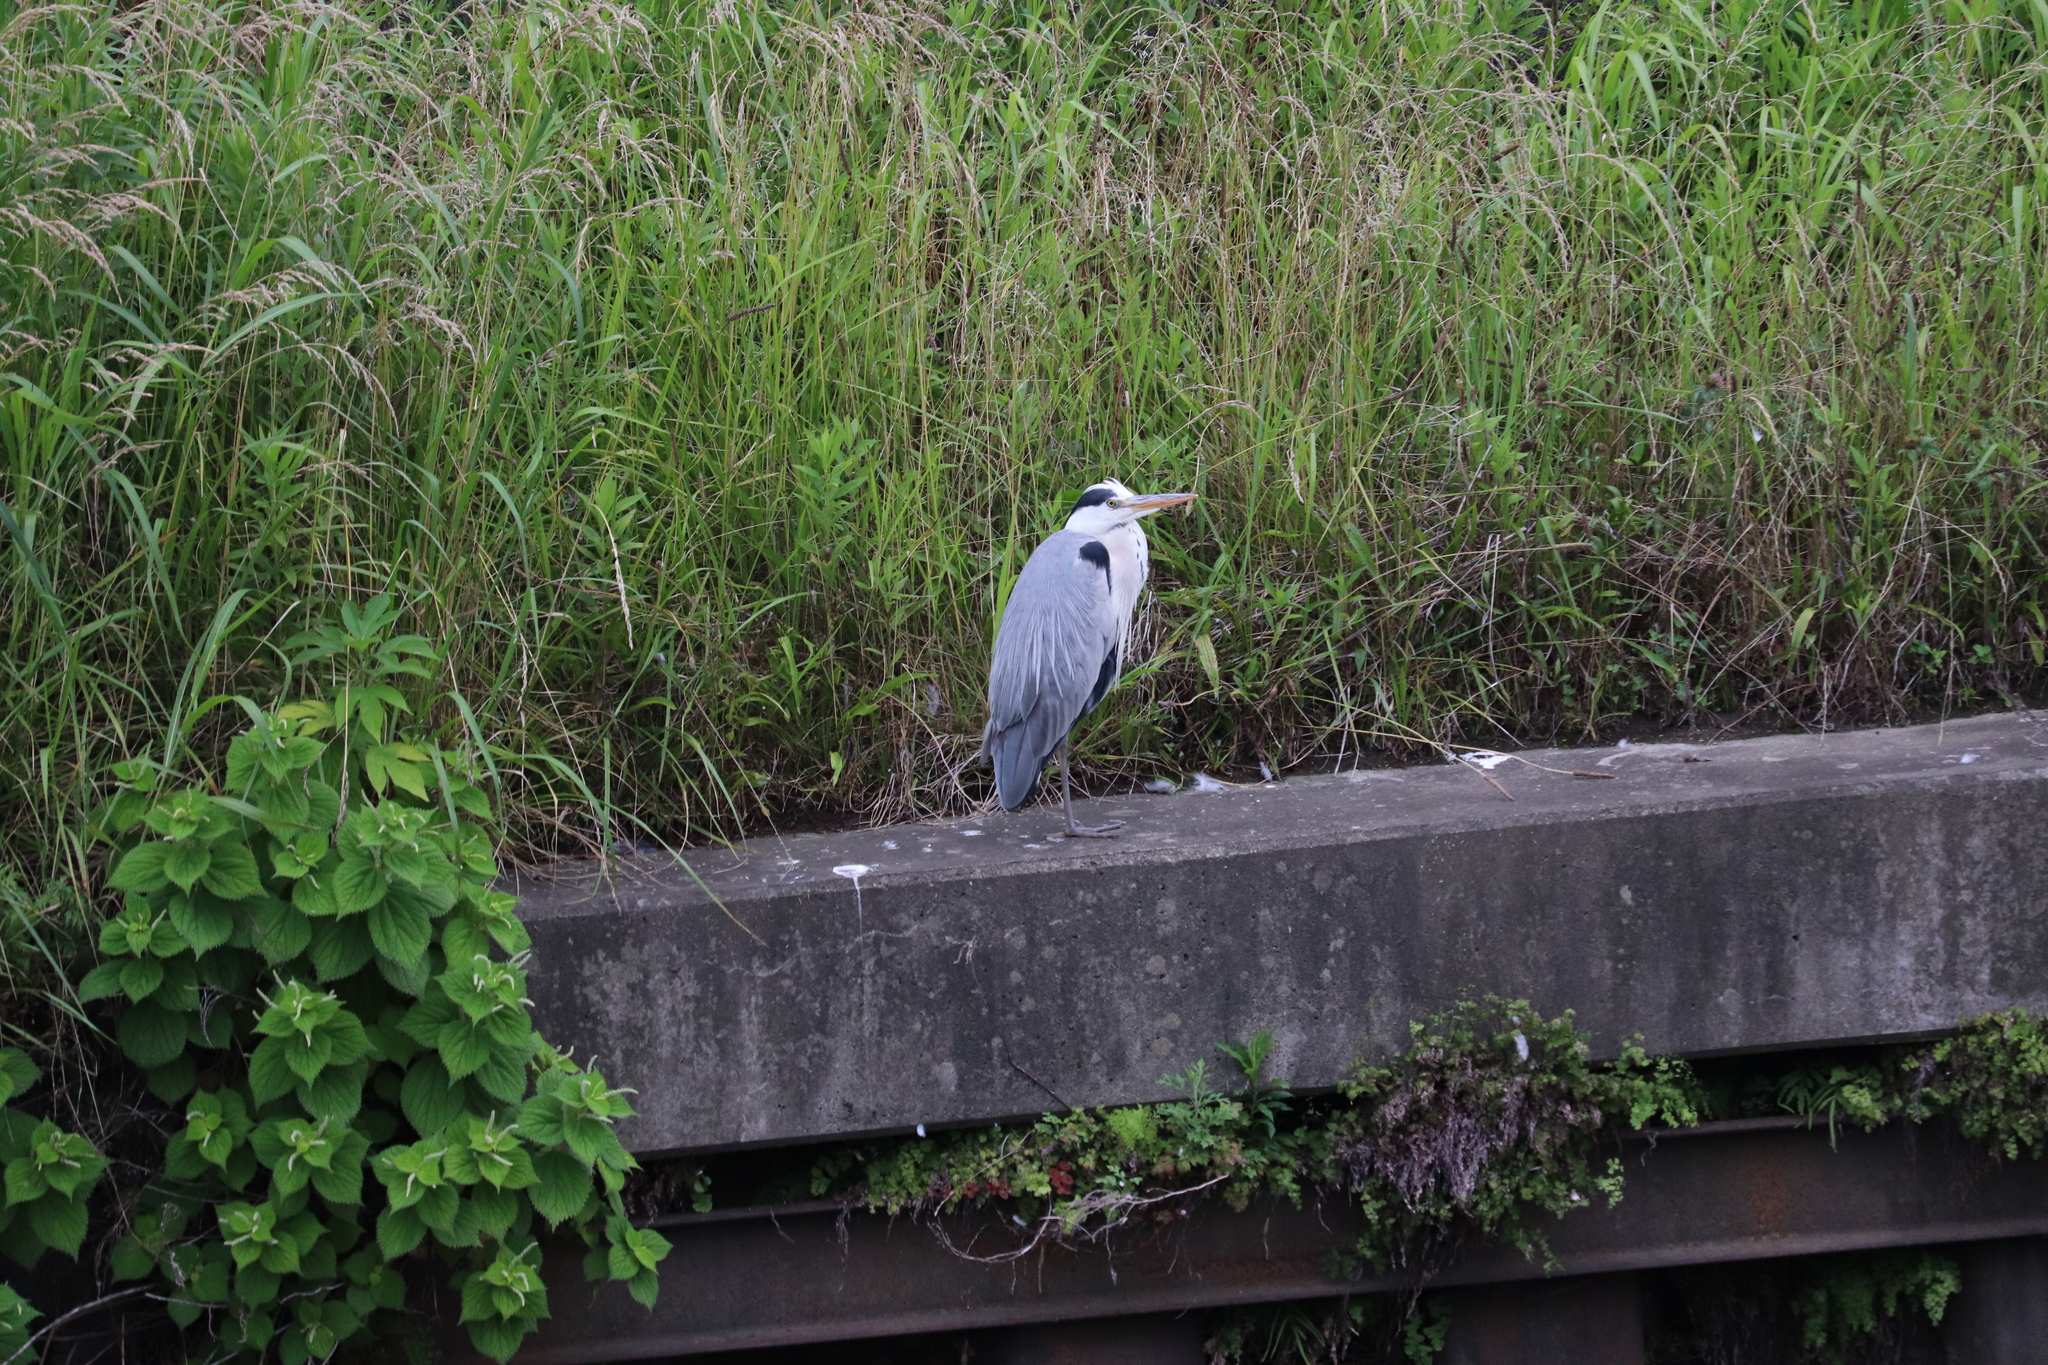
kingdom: Animalia
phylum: Chordata
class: Aves
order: Pelecaniformes
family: Ardeidae
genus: Ardea
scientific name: Ardea cinerea
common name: Grey heron
